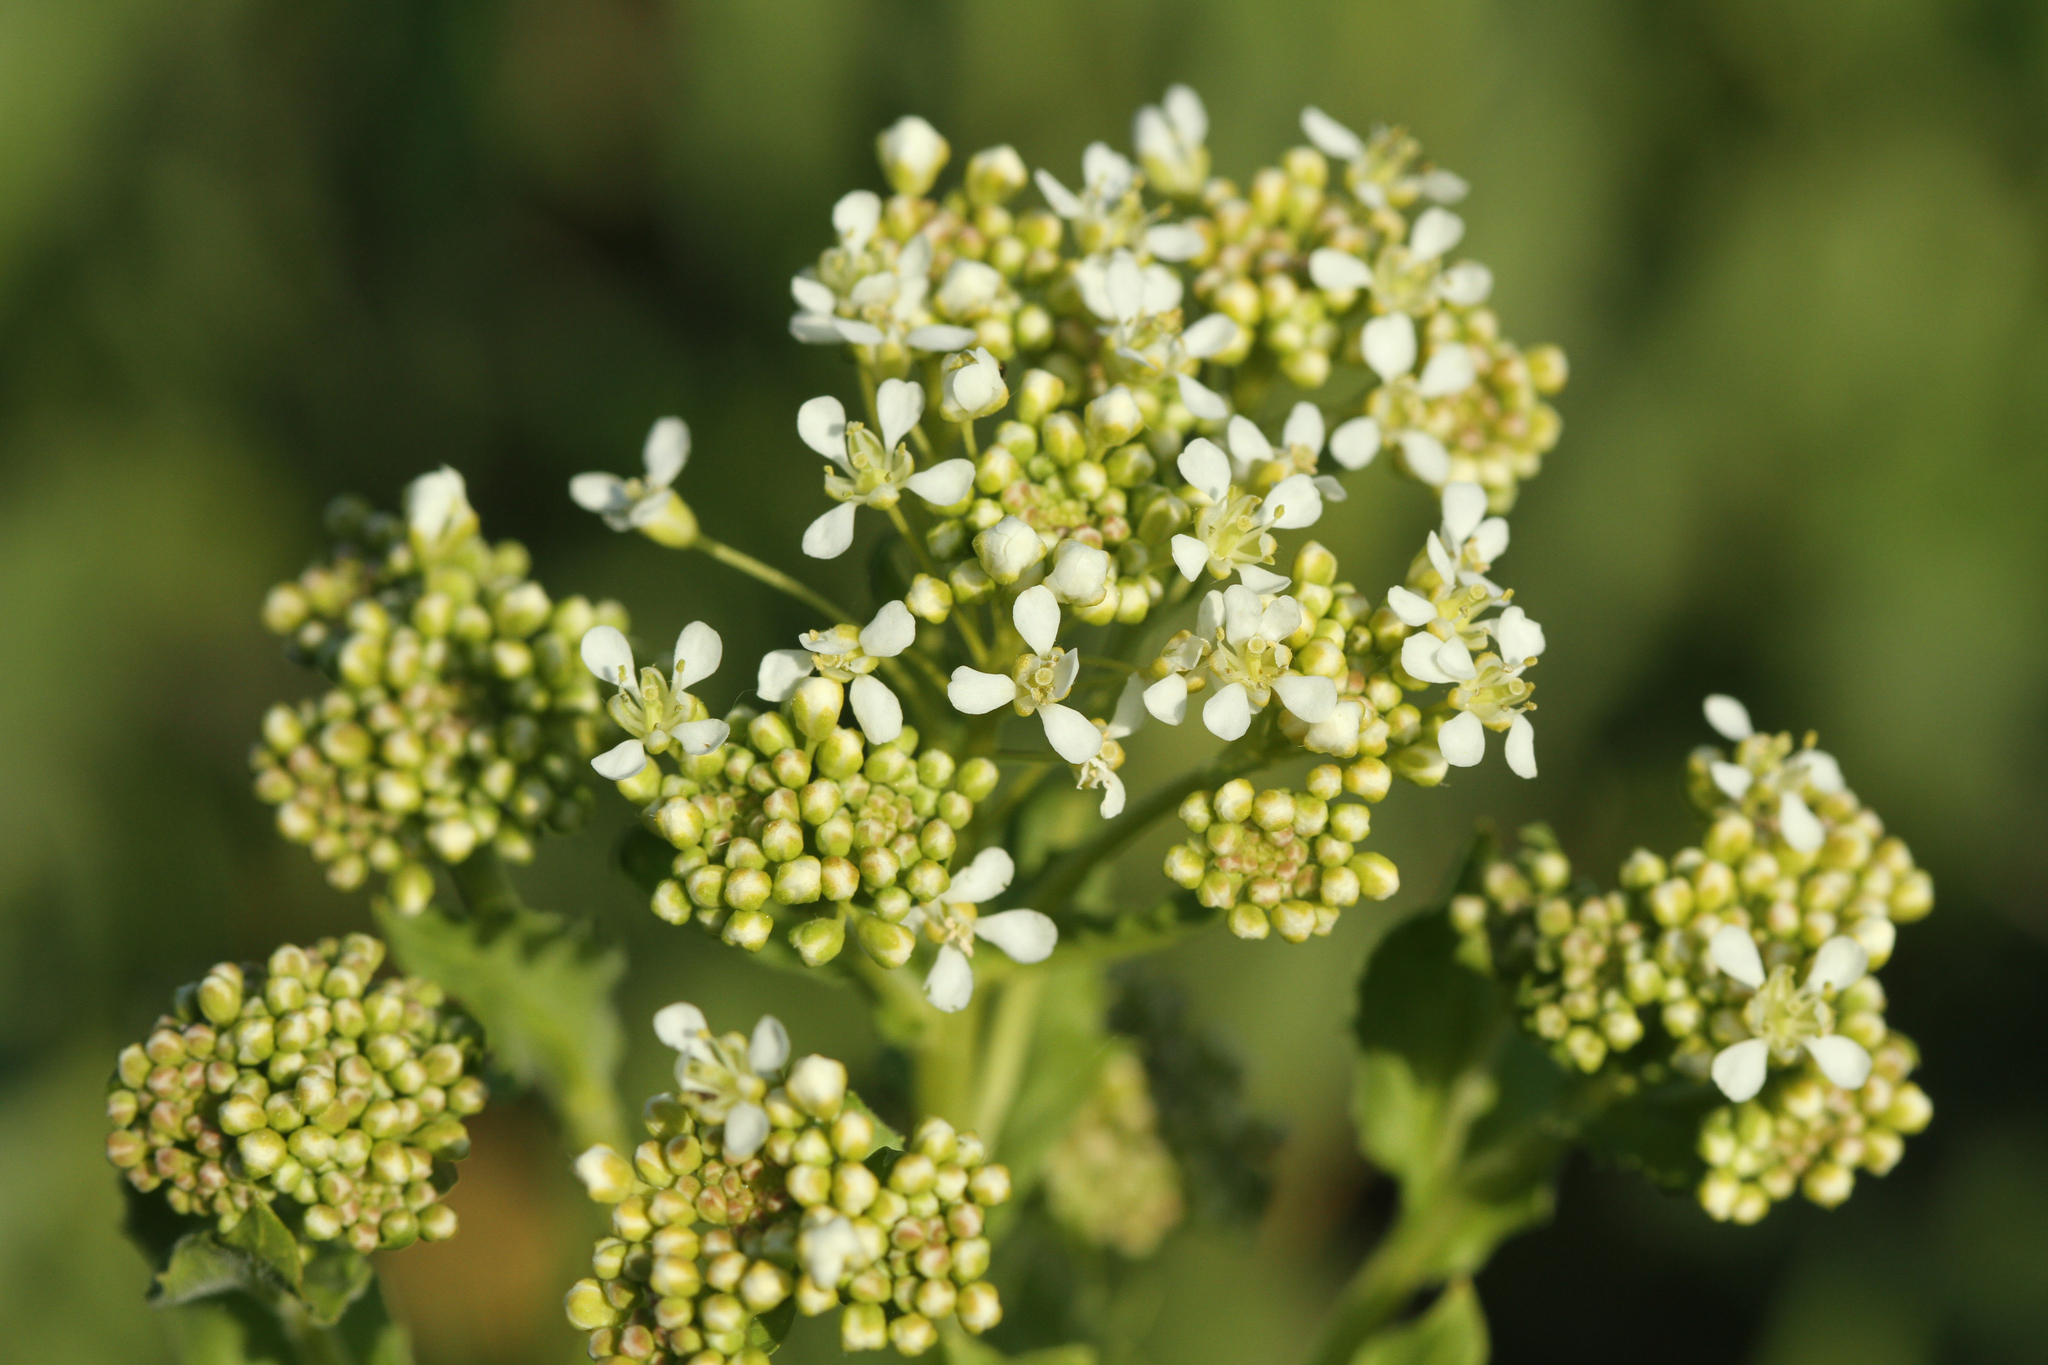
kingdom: Plantae
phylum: Tracheophyta
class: Magnoliopsida
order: Brassicales
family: Brassicaceae
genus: Lepidium
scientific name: Lepidium draba
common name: Hoary cress
